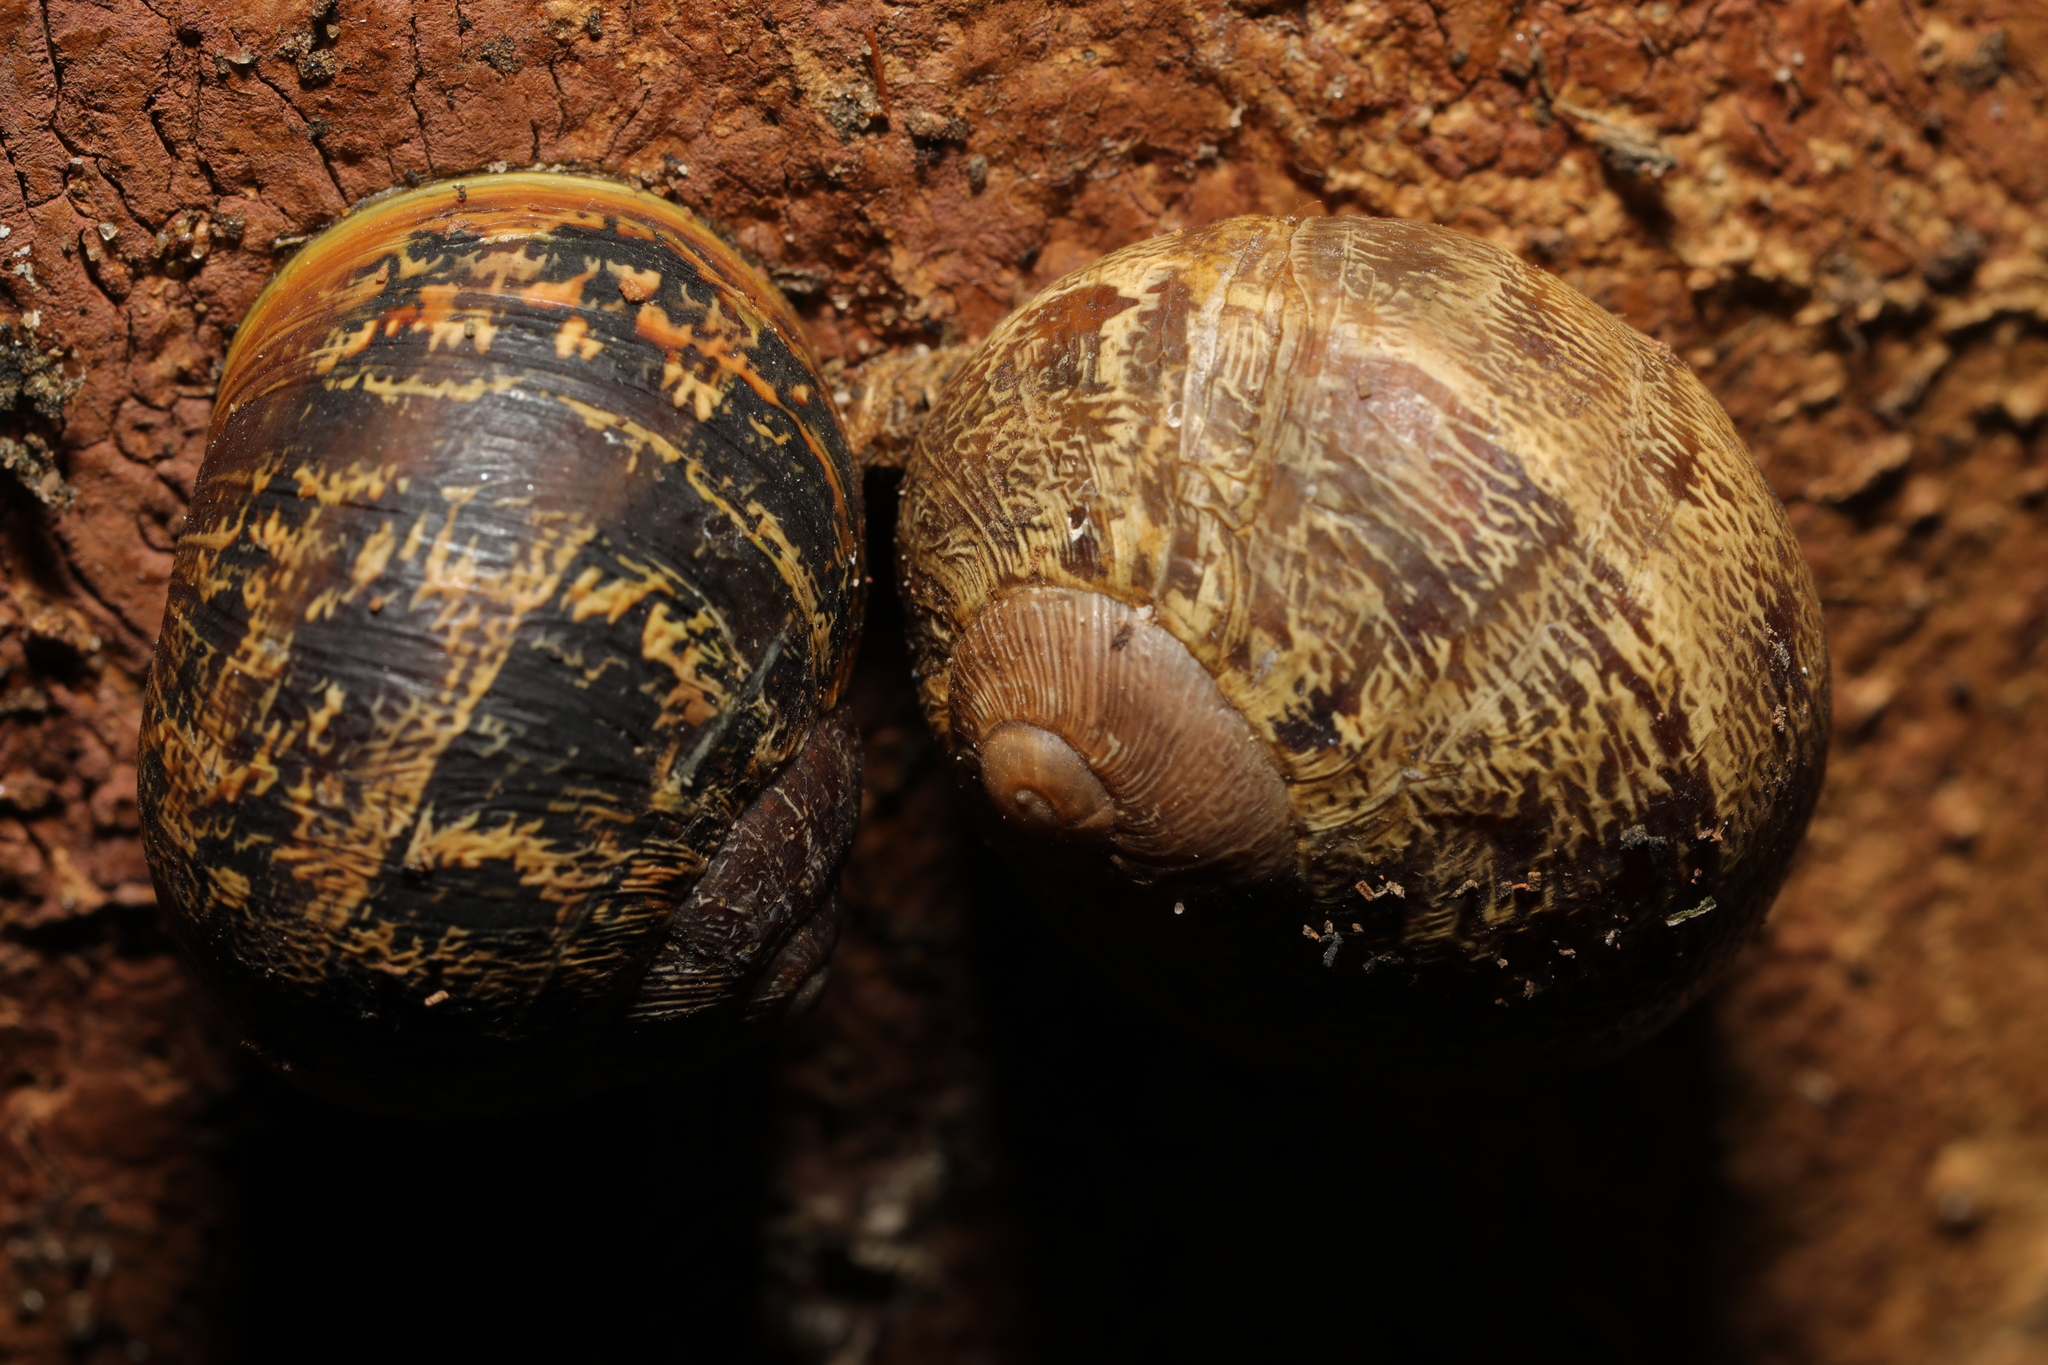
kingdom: Animalia
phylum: Mollusca
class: Gastropoda
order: Stylommatophora
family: Helicidae
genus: Cornu
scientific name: Cornu aspersum
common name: Brown garden snail
